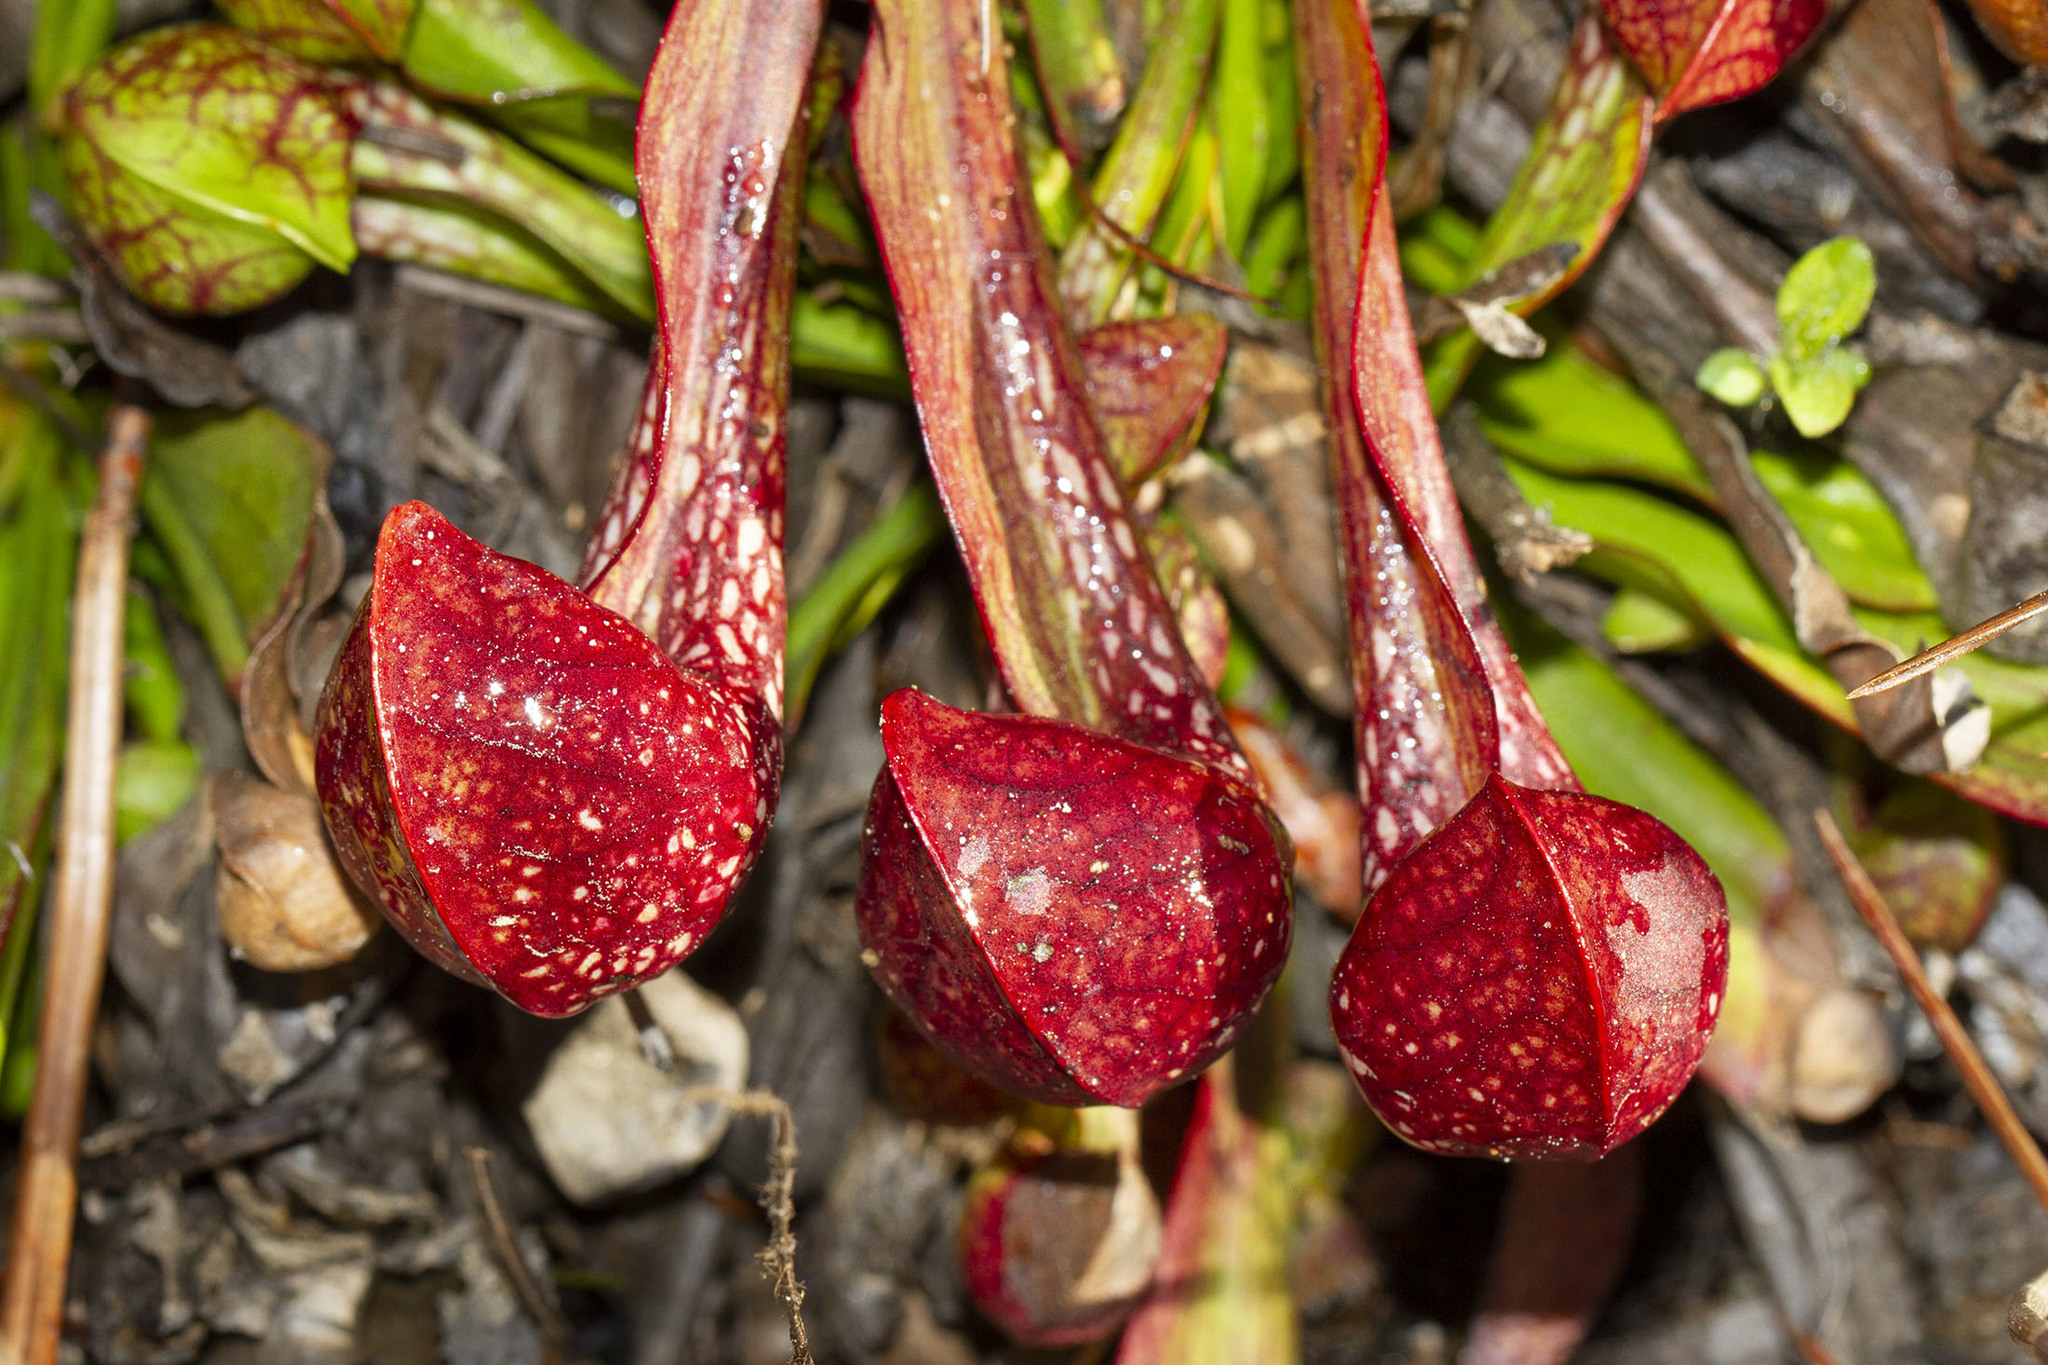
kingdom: Plantae
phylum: Tracheophyta
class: Magnoliopsida
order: Ericales
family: Sarraceniaceae
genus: Sarracenia
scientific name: Sarracenia psittacina
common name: Parrot pitcherplant
